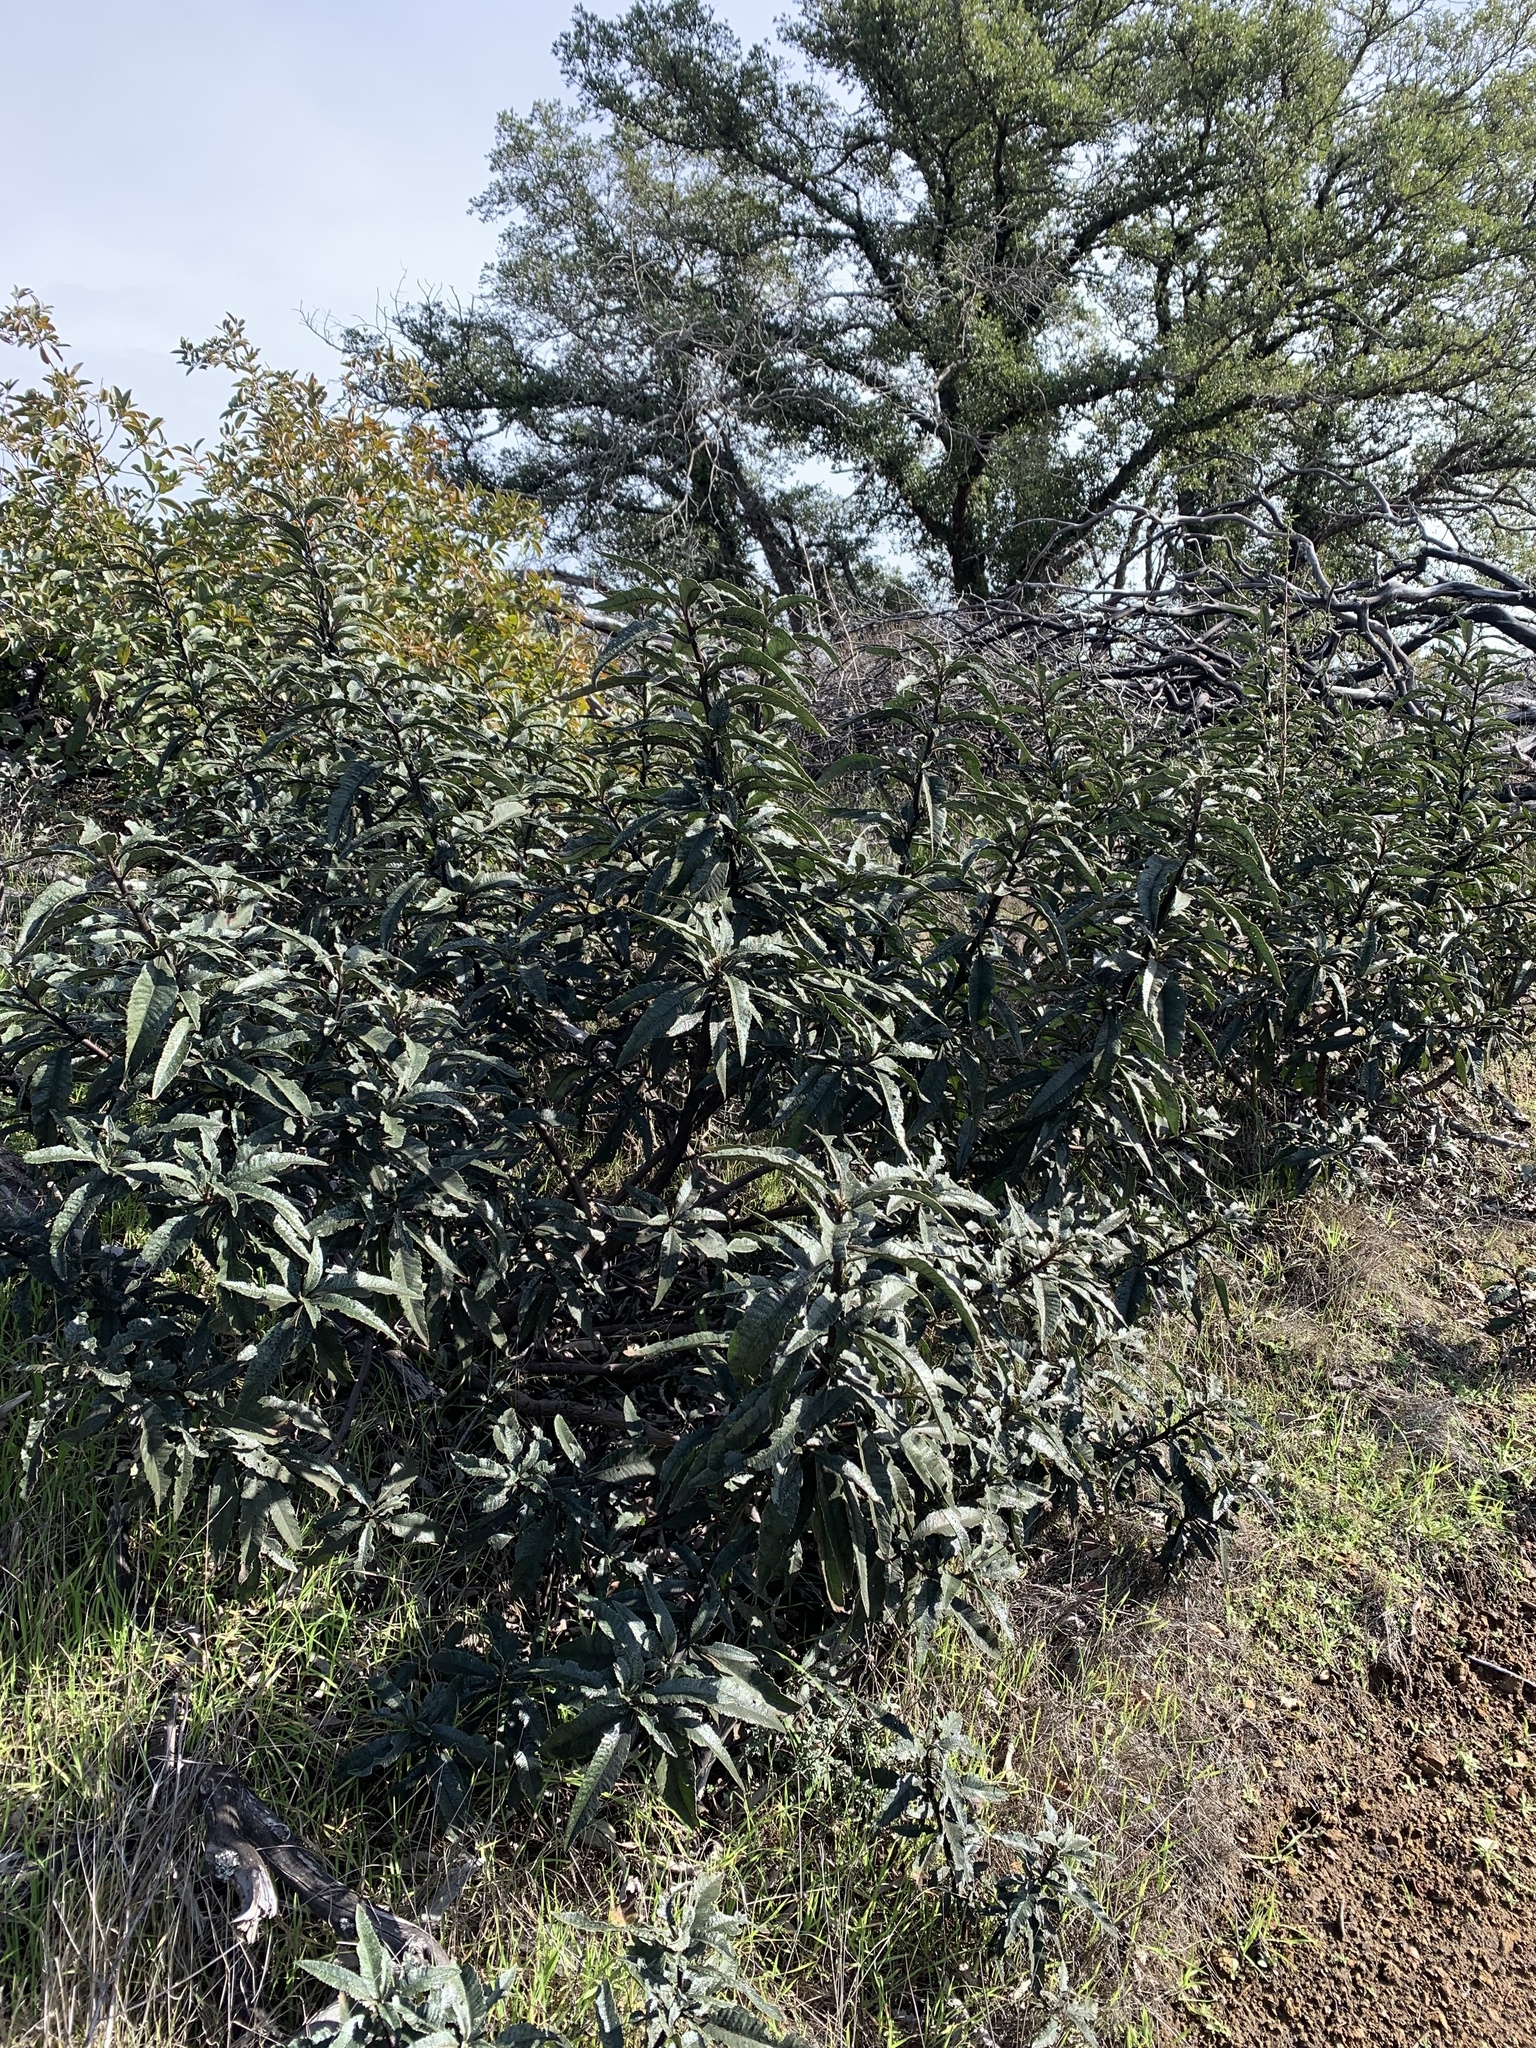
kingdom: Plantae
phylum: Tracheophyta
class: Magnoliopsida
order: Boraginales
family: Namaceae
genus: Eriodictyon
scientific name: Eriodictyon californicum
